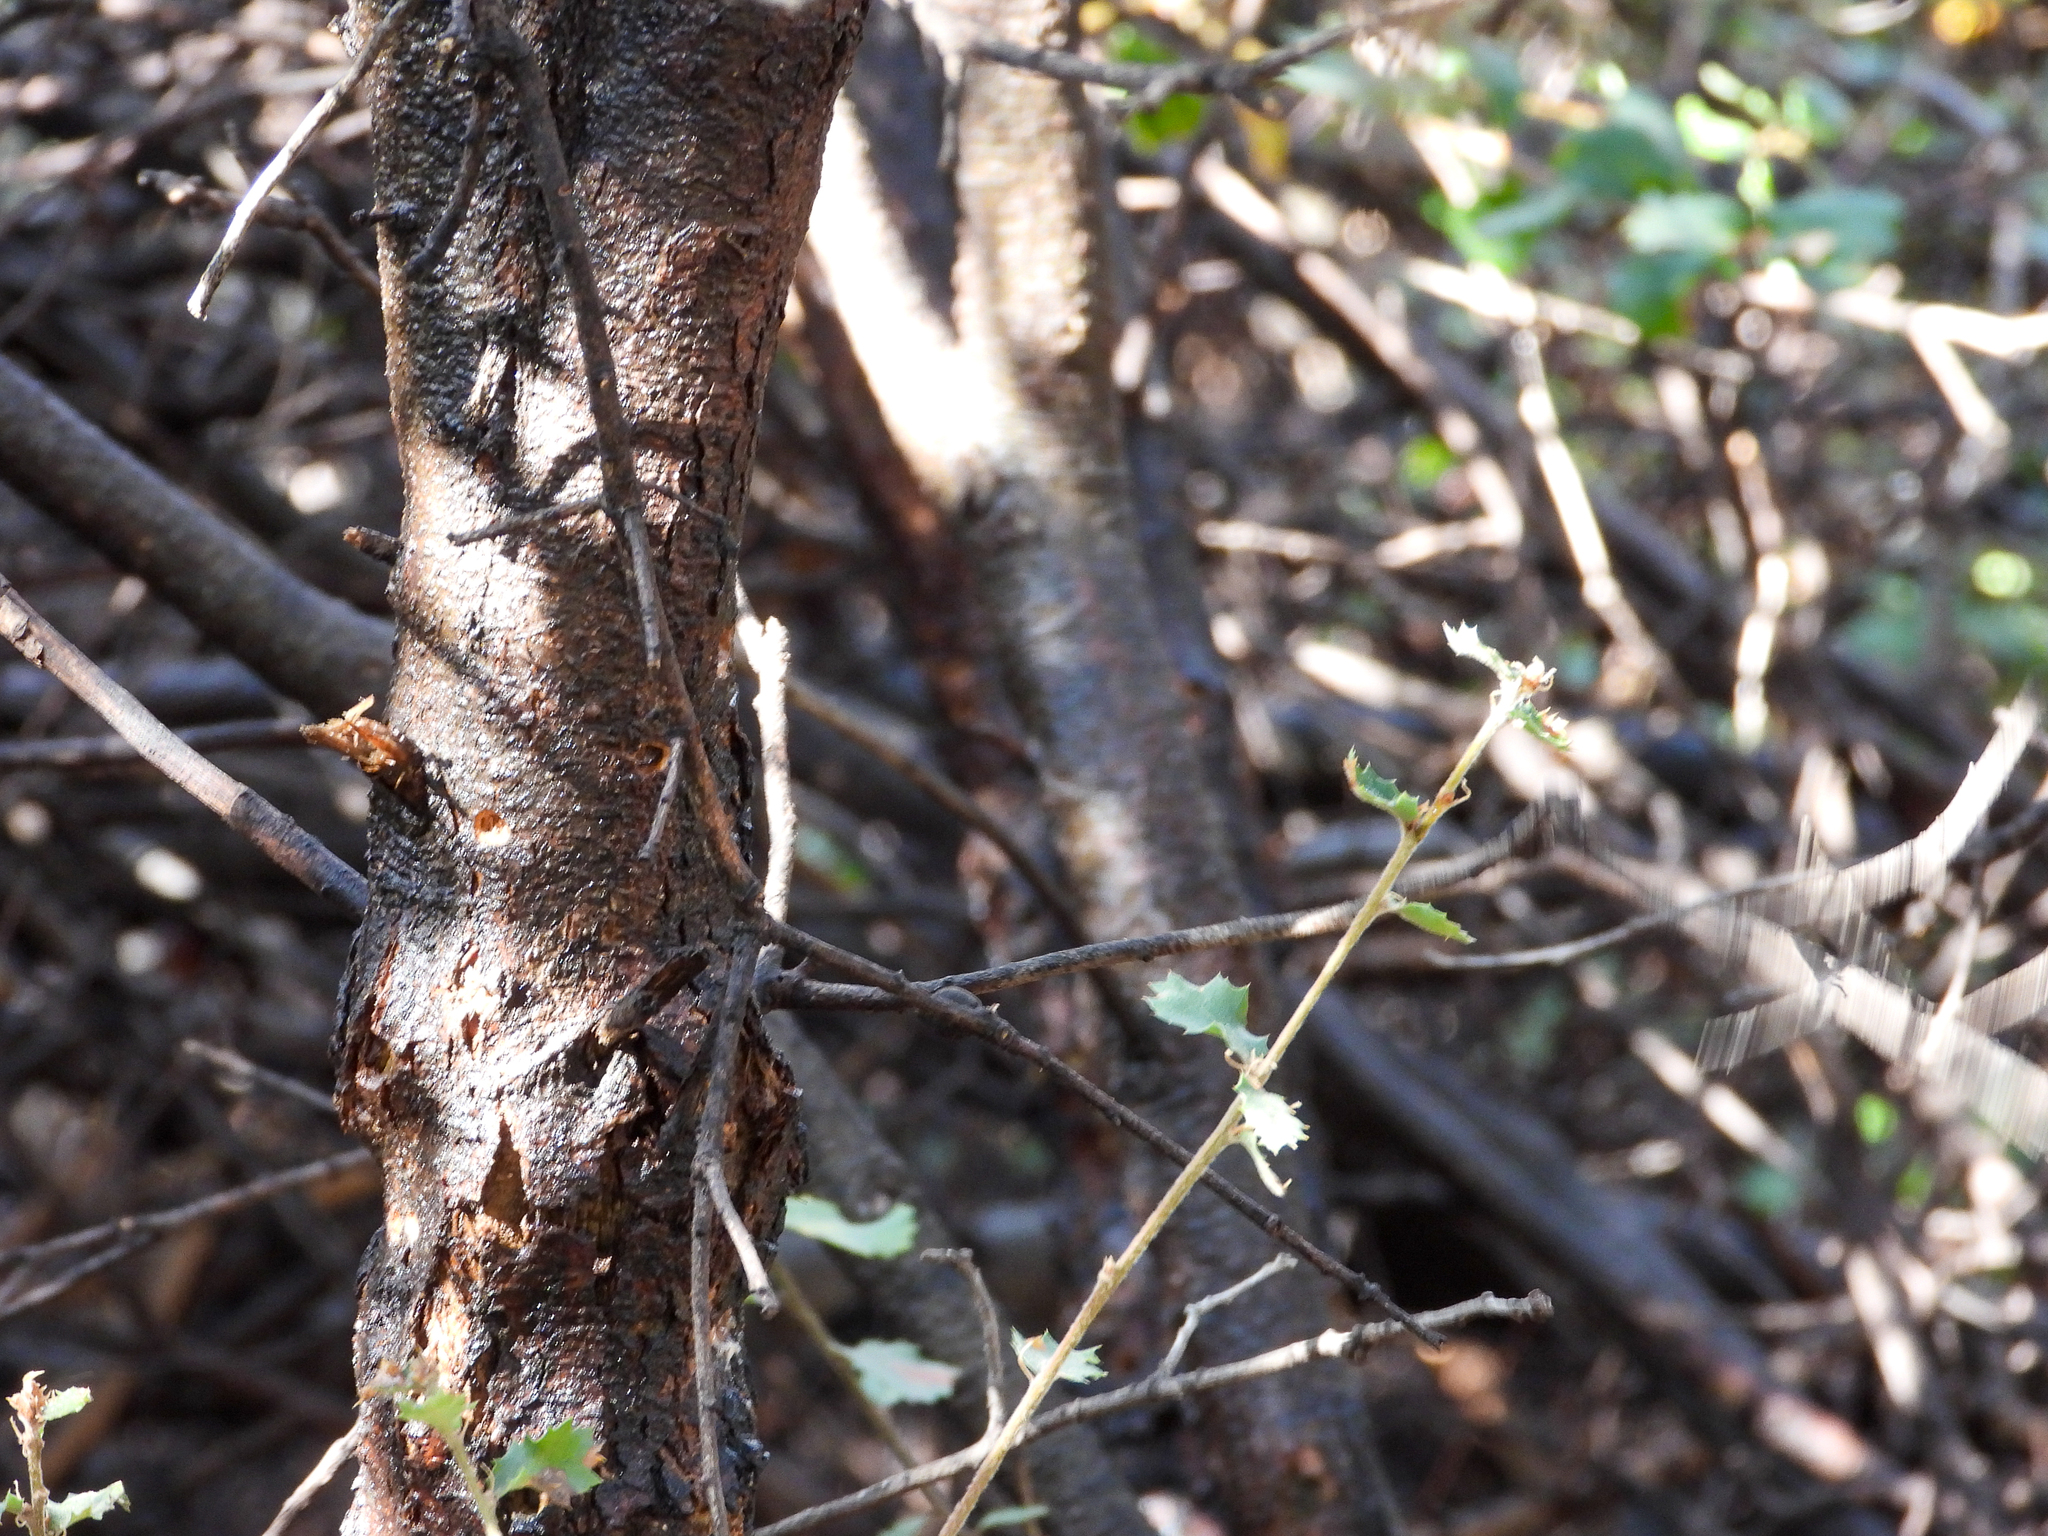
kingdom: Plantae
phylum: Tracheophyta
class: Magnoliopsida
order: Fagales
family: Fagaceae
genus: Quercus
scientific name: Quercus berberidifolia
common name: California scrub oak
